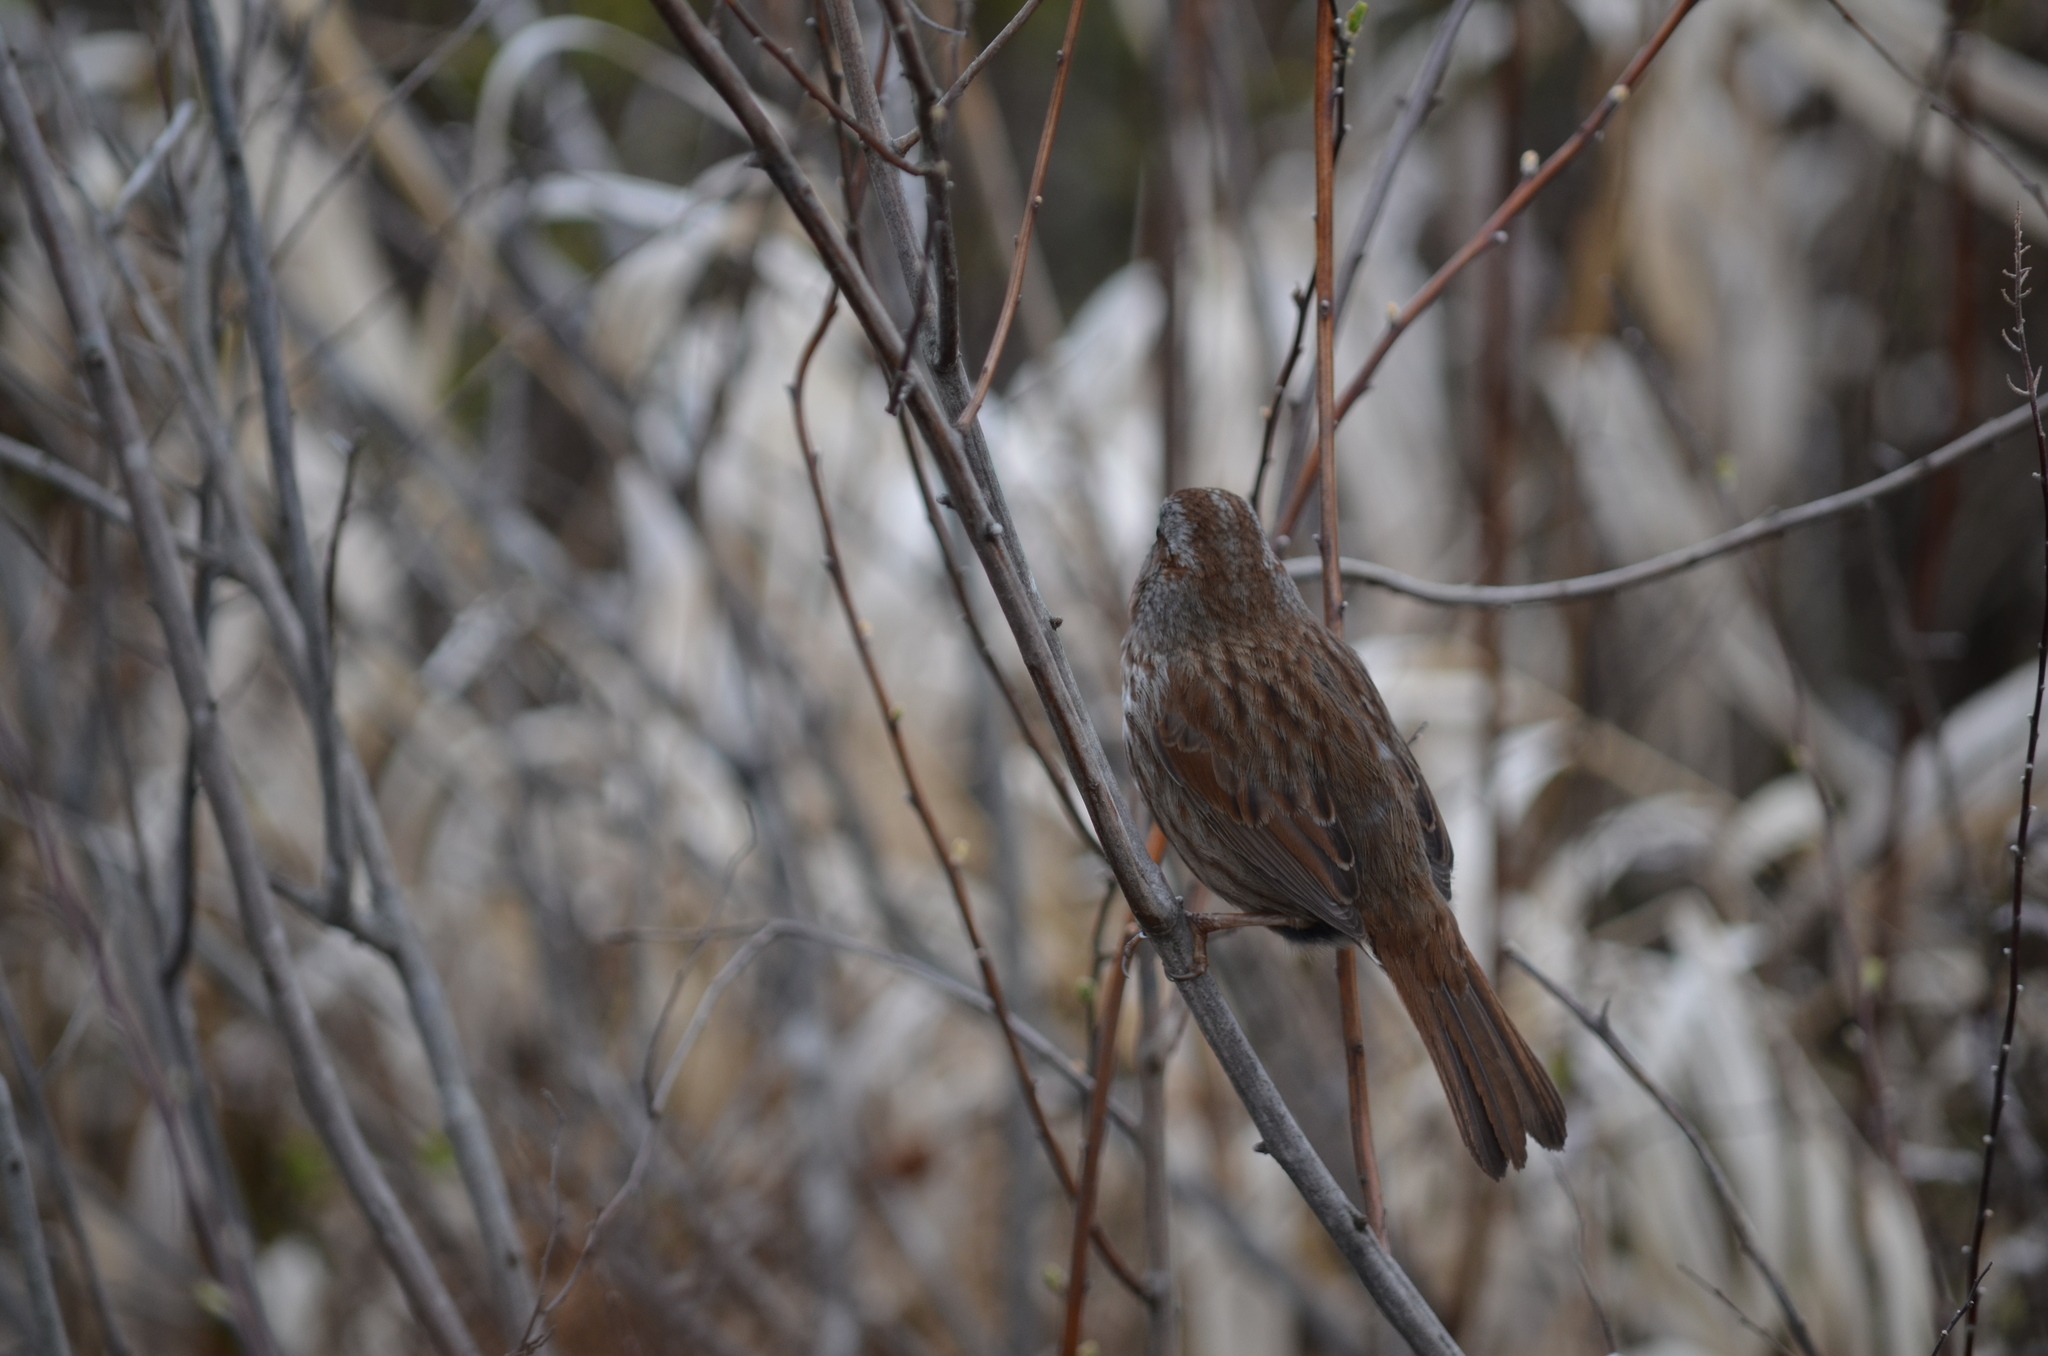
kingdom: Animalia
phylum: Chordata
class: Aves
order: Passeriformes
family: Passerellidae
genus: Melospiza
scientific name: Melospiza melodia
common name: Song sparrow
